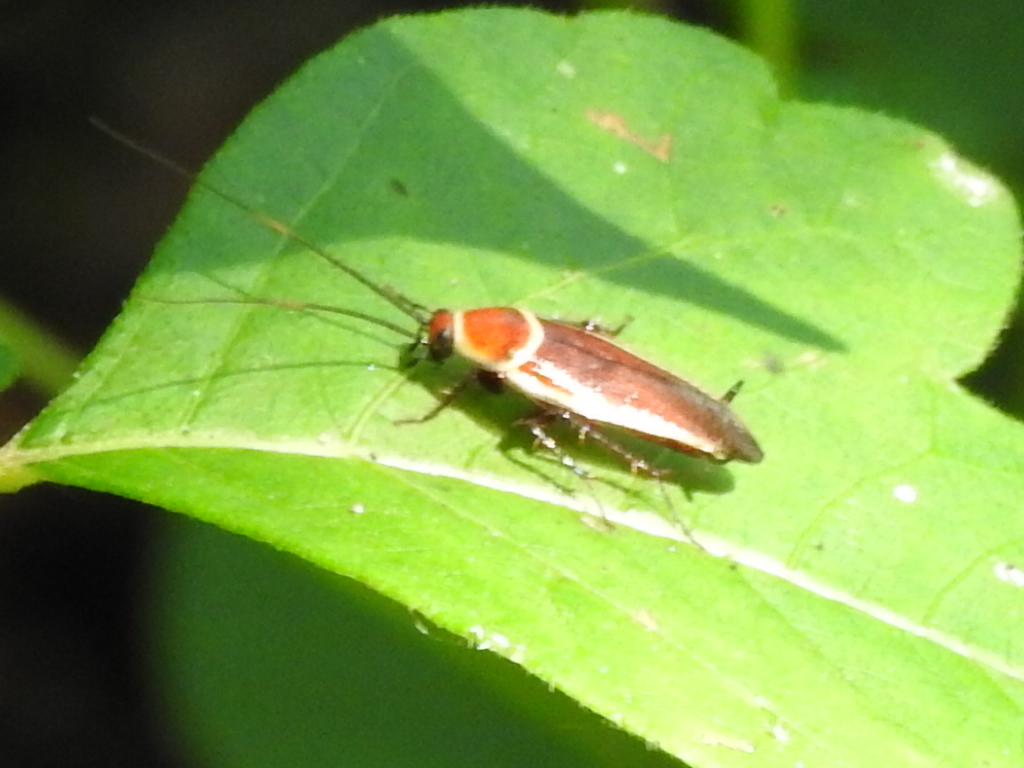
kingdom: Animalia
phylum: Arthropoda
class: Insecta
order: Blattodea
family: Ectobiidae
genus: Pseudomops
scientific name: Pseudomops septentrionalis
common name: Pale-bordered field cockroach
